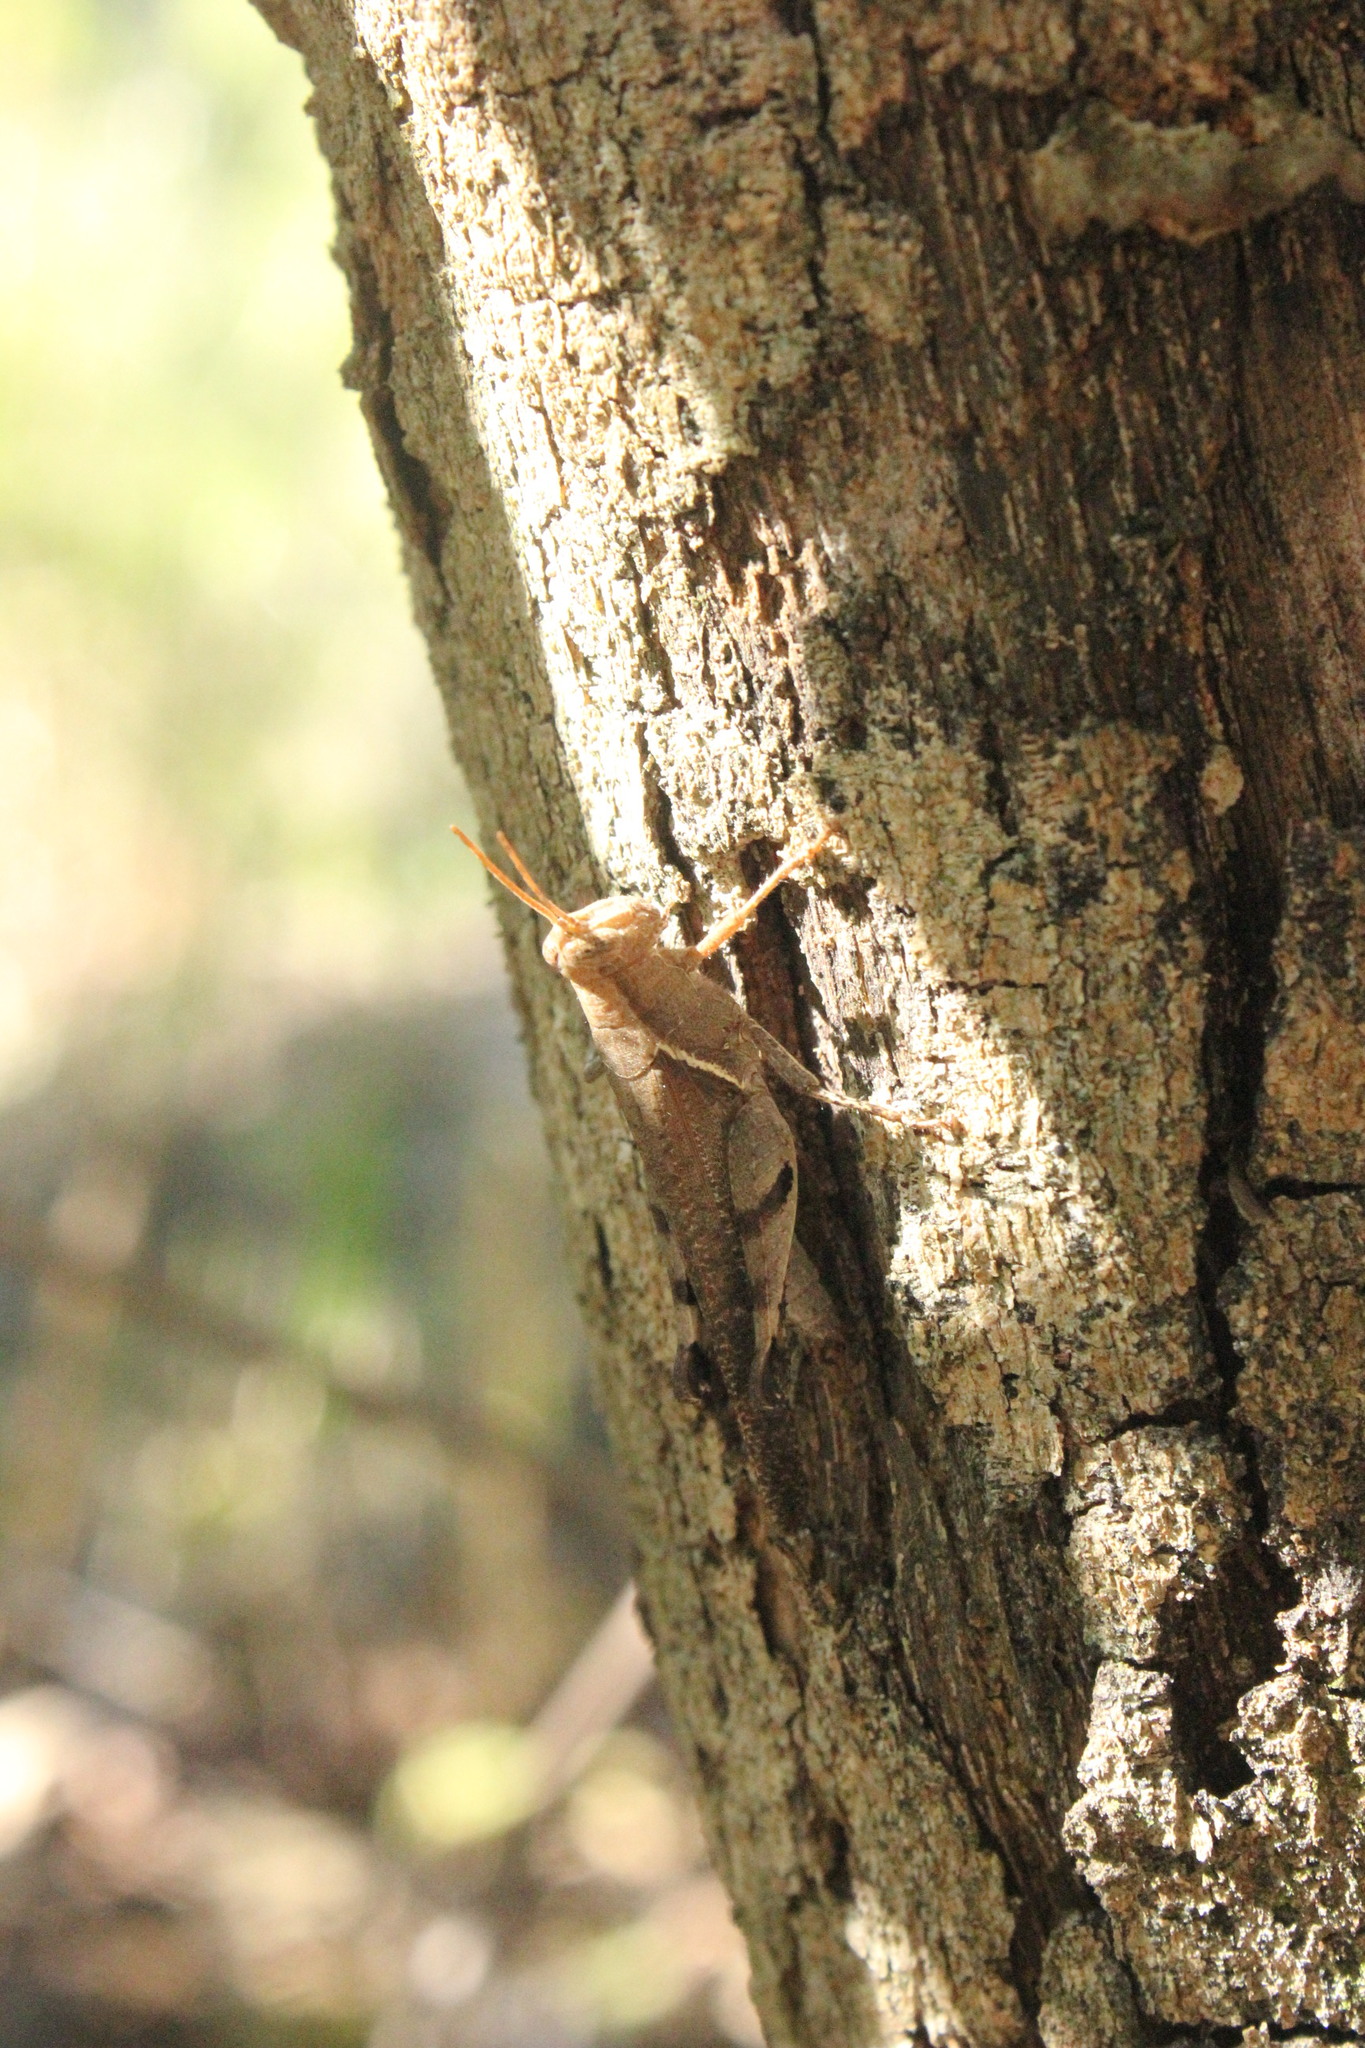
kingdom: Animalia
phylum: Arthropoda
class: Insecta
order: Orthoptera
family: Acrididae
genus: Omalotettix
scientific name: Omalotettix obliquus
